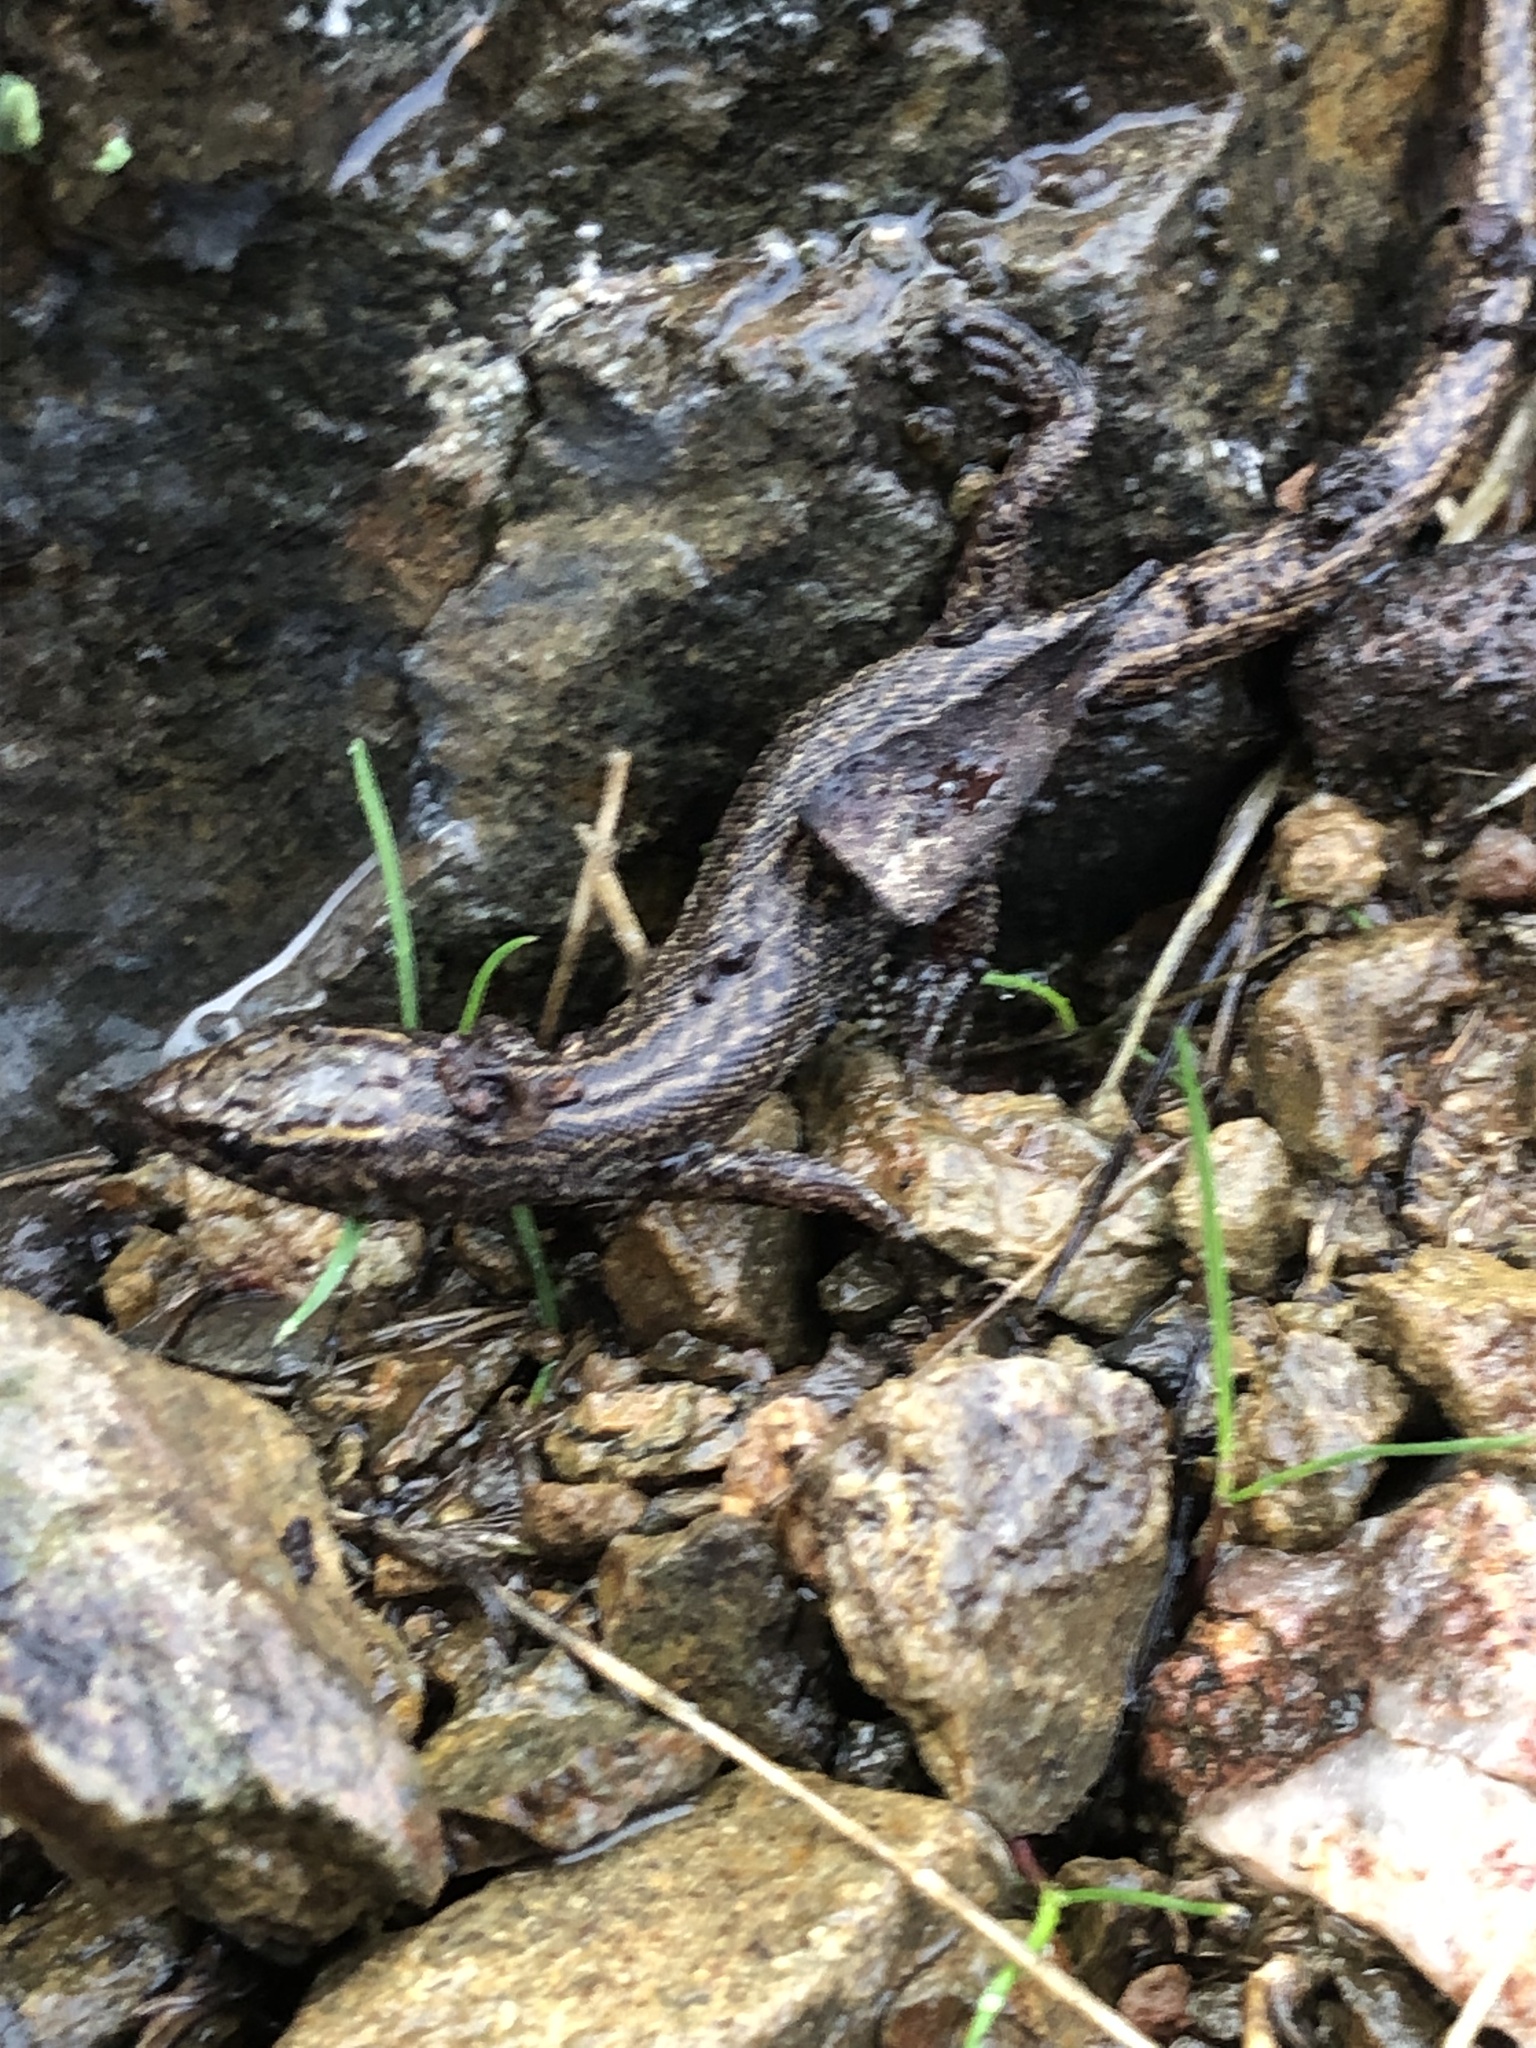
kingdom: Animalia
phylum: Chordata
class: Squamata
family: Xantusiidae
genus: Xantusia
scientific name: Xantusia vigilis
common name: Desert night lizard
